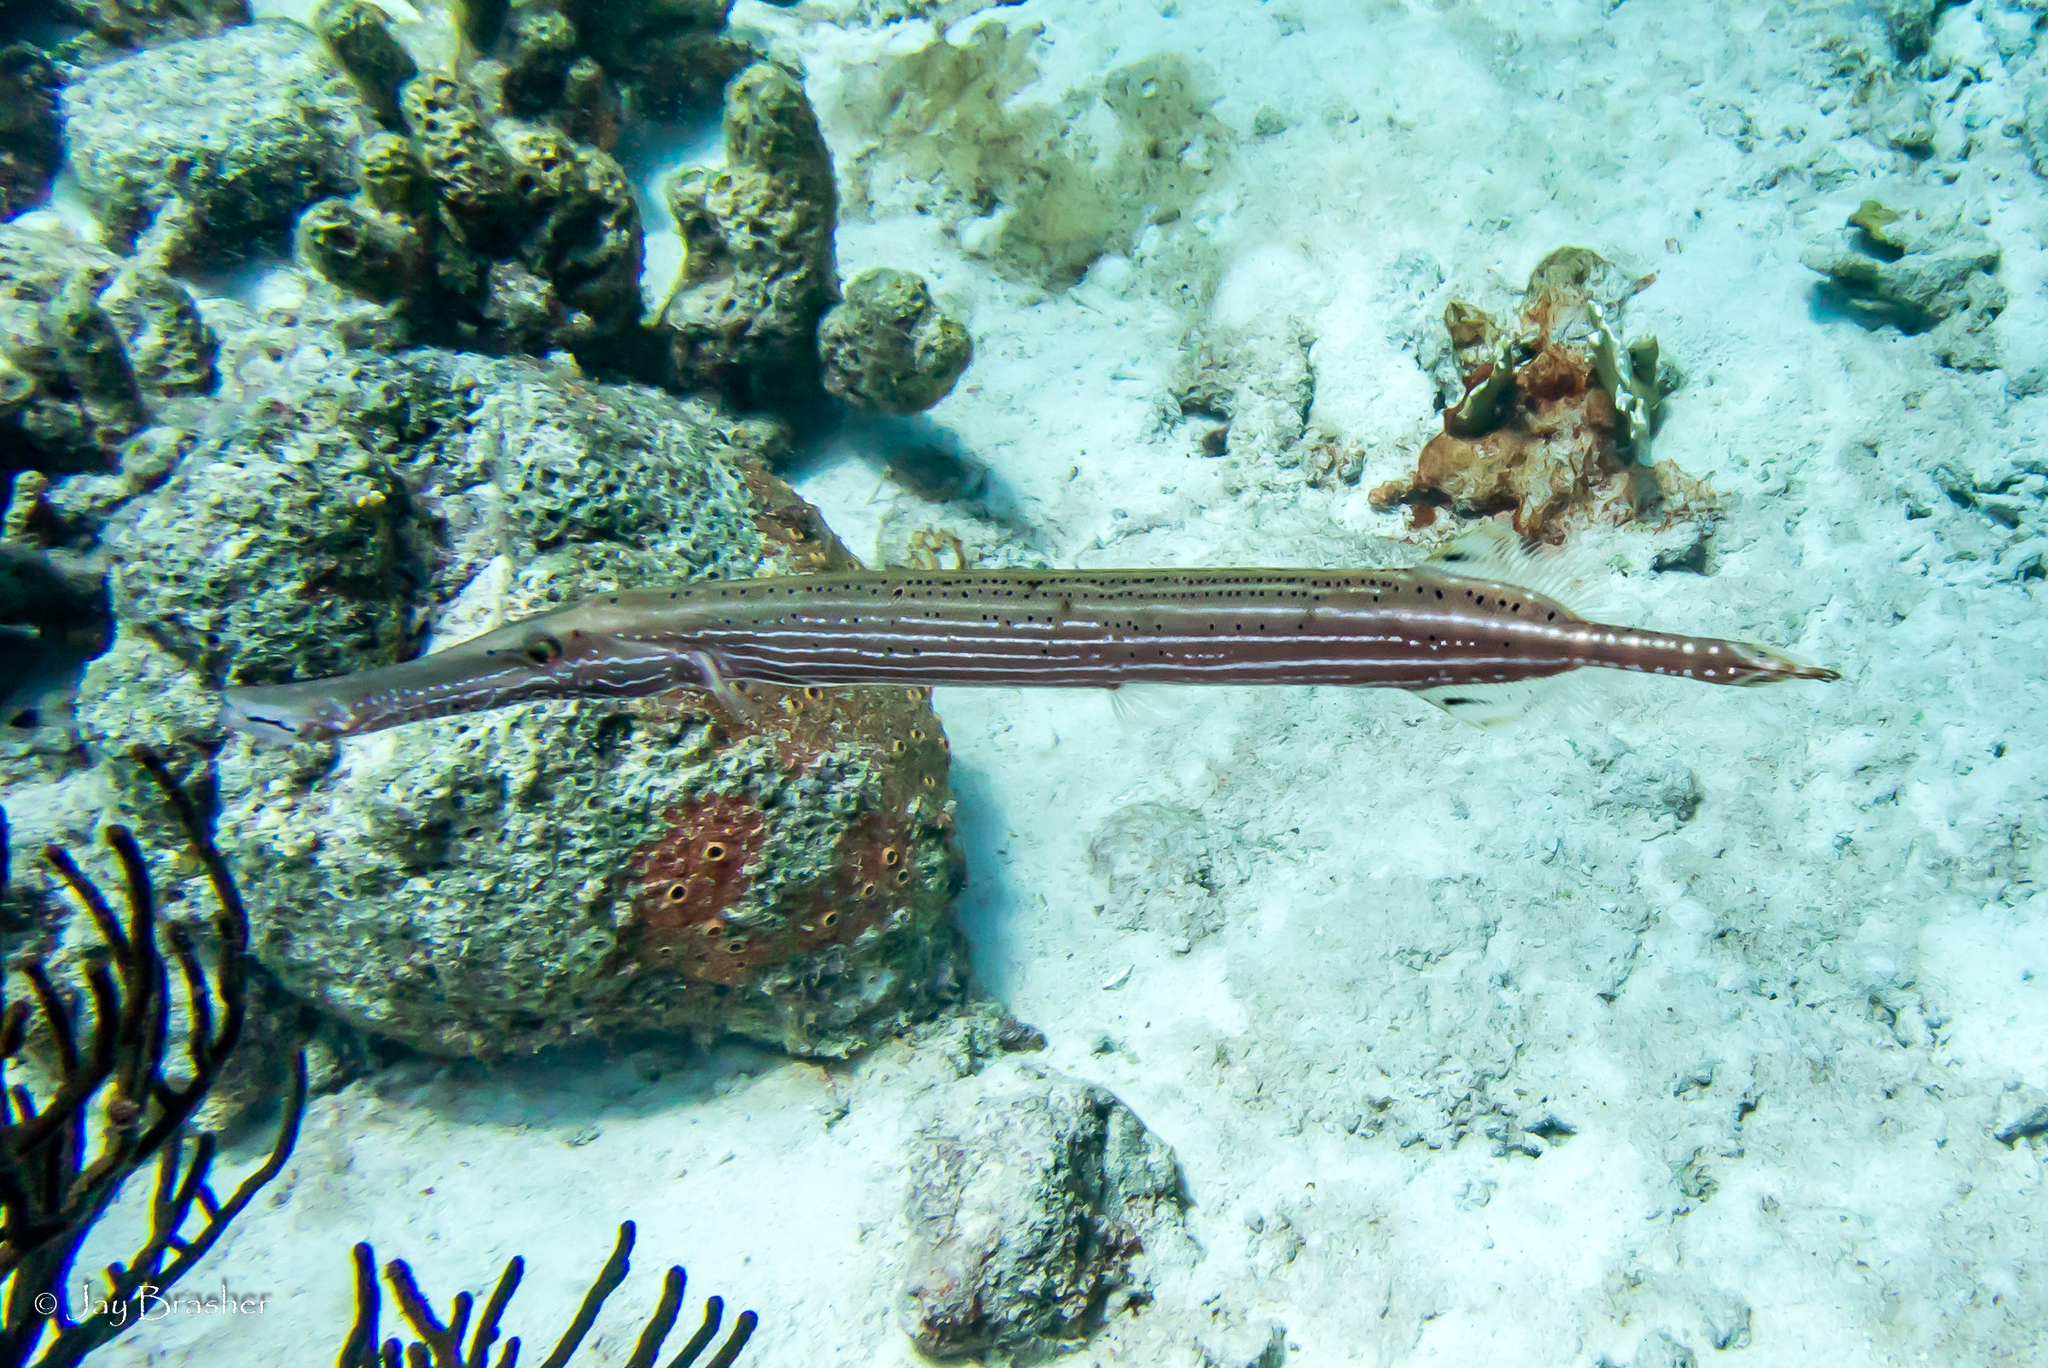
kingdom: Animalia
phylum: Chordata
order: Syngnathiformes
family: Aulostomidae
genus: Aulostomus
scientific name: Aulostomus maculatus
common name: West atlantic trumpetfish
